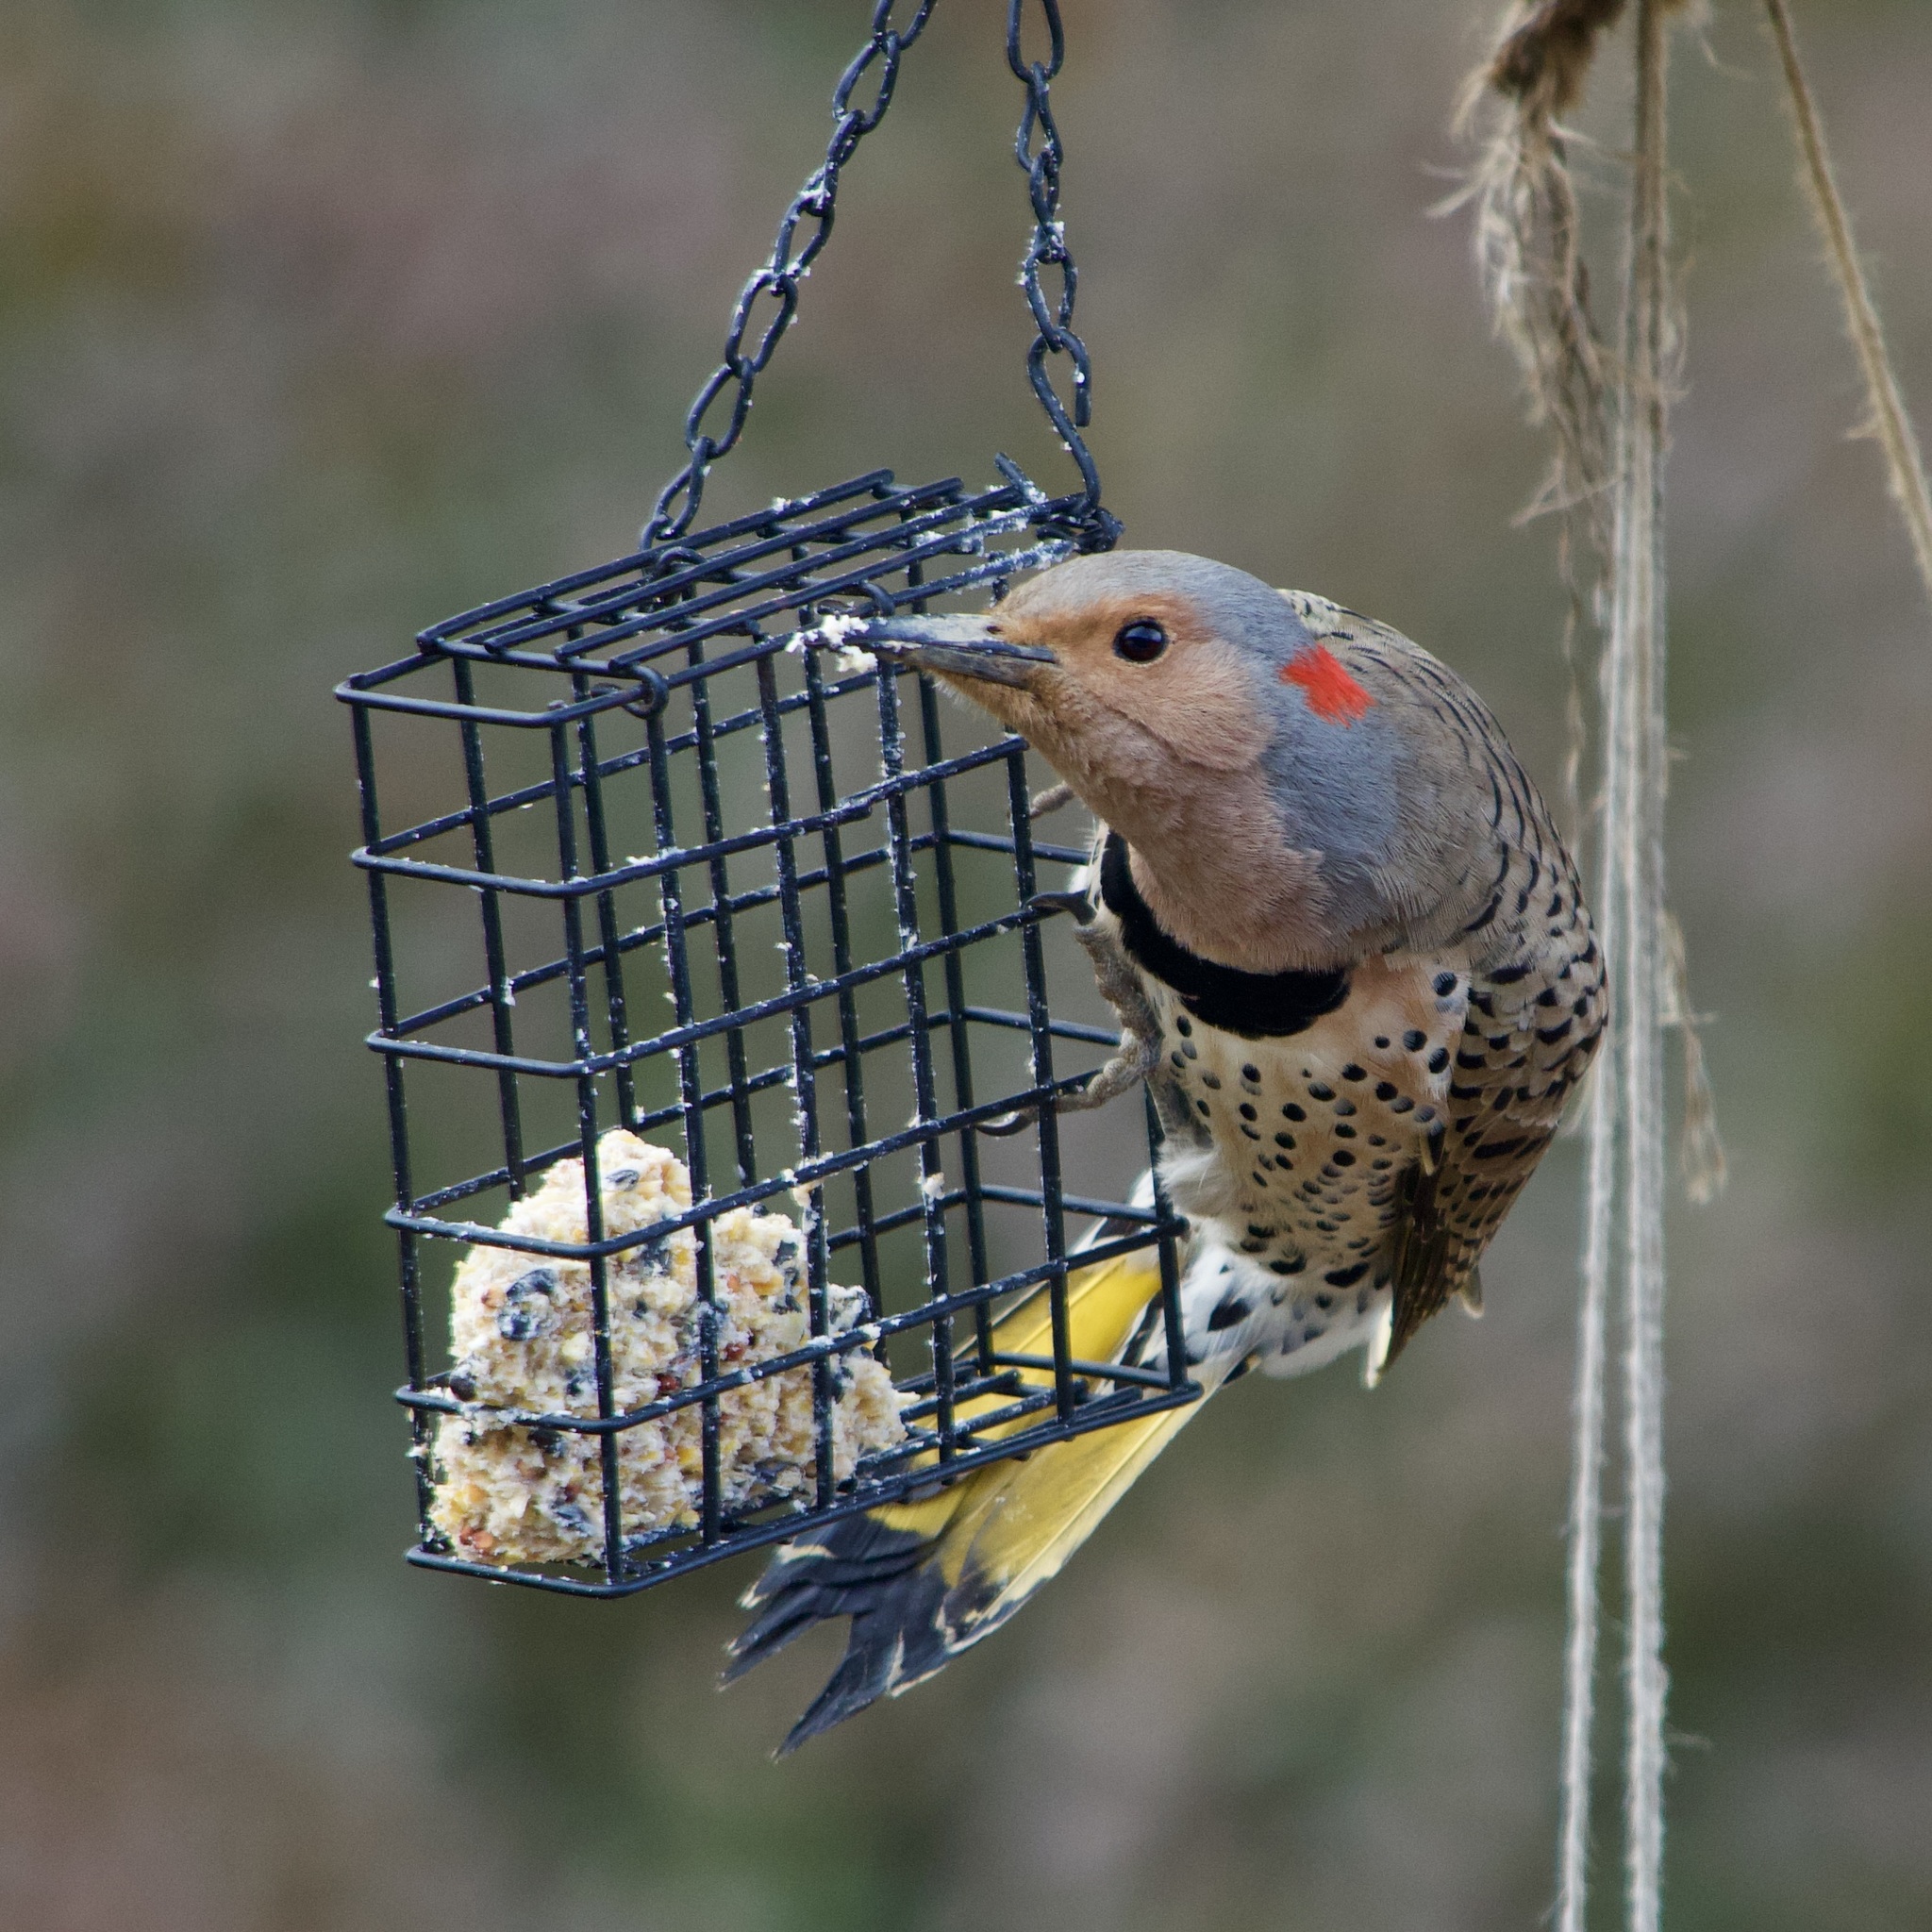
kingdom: Animalia
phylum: Chordata
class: Aves
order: Piciformes
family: Picidae
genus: Colaptes
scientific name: Colaptes auratus
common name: Northern flicker
